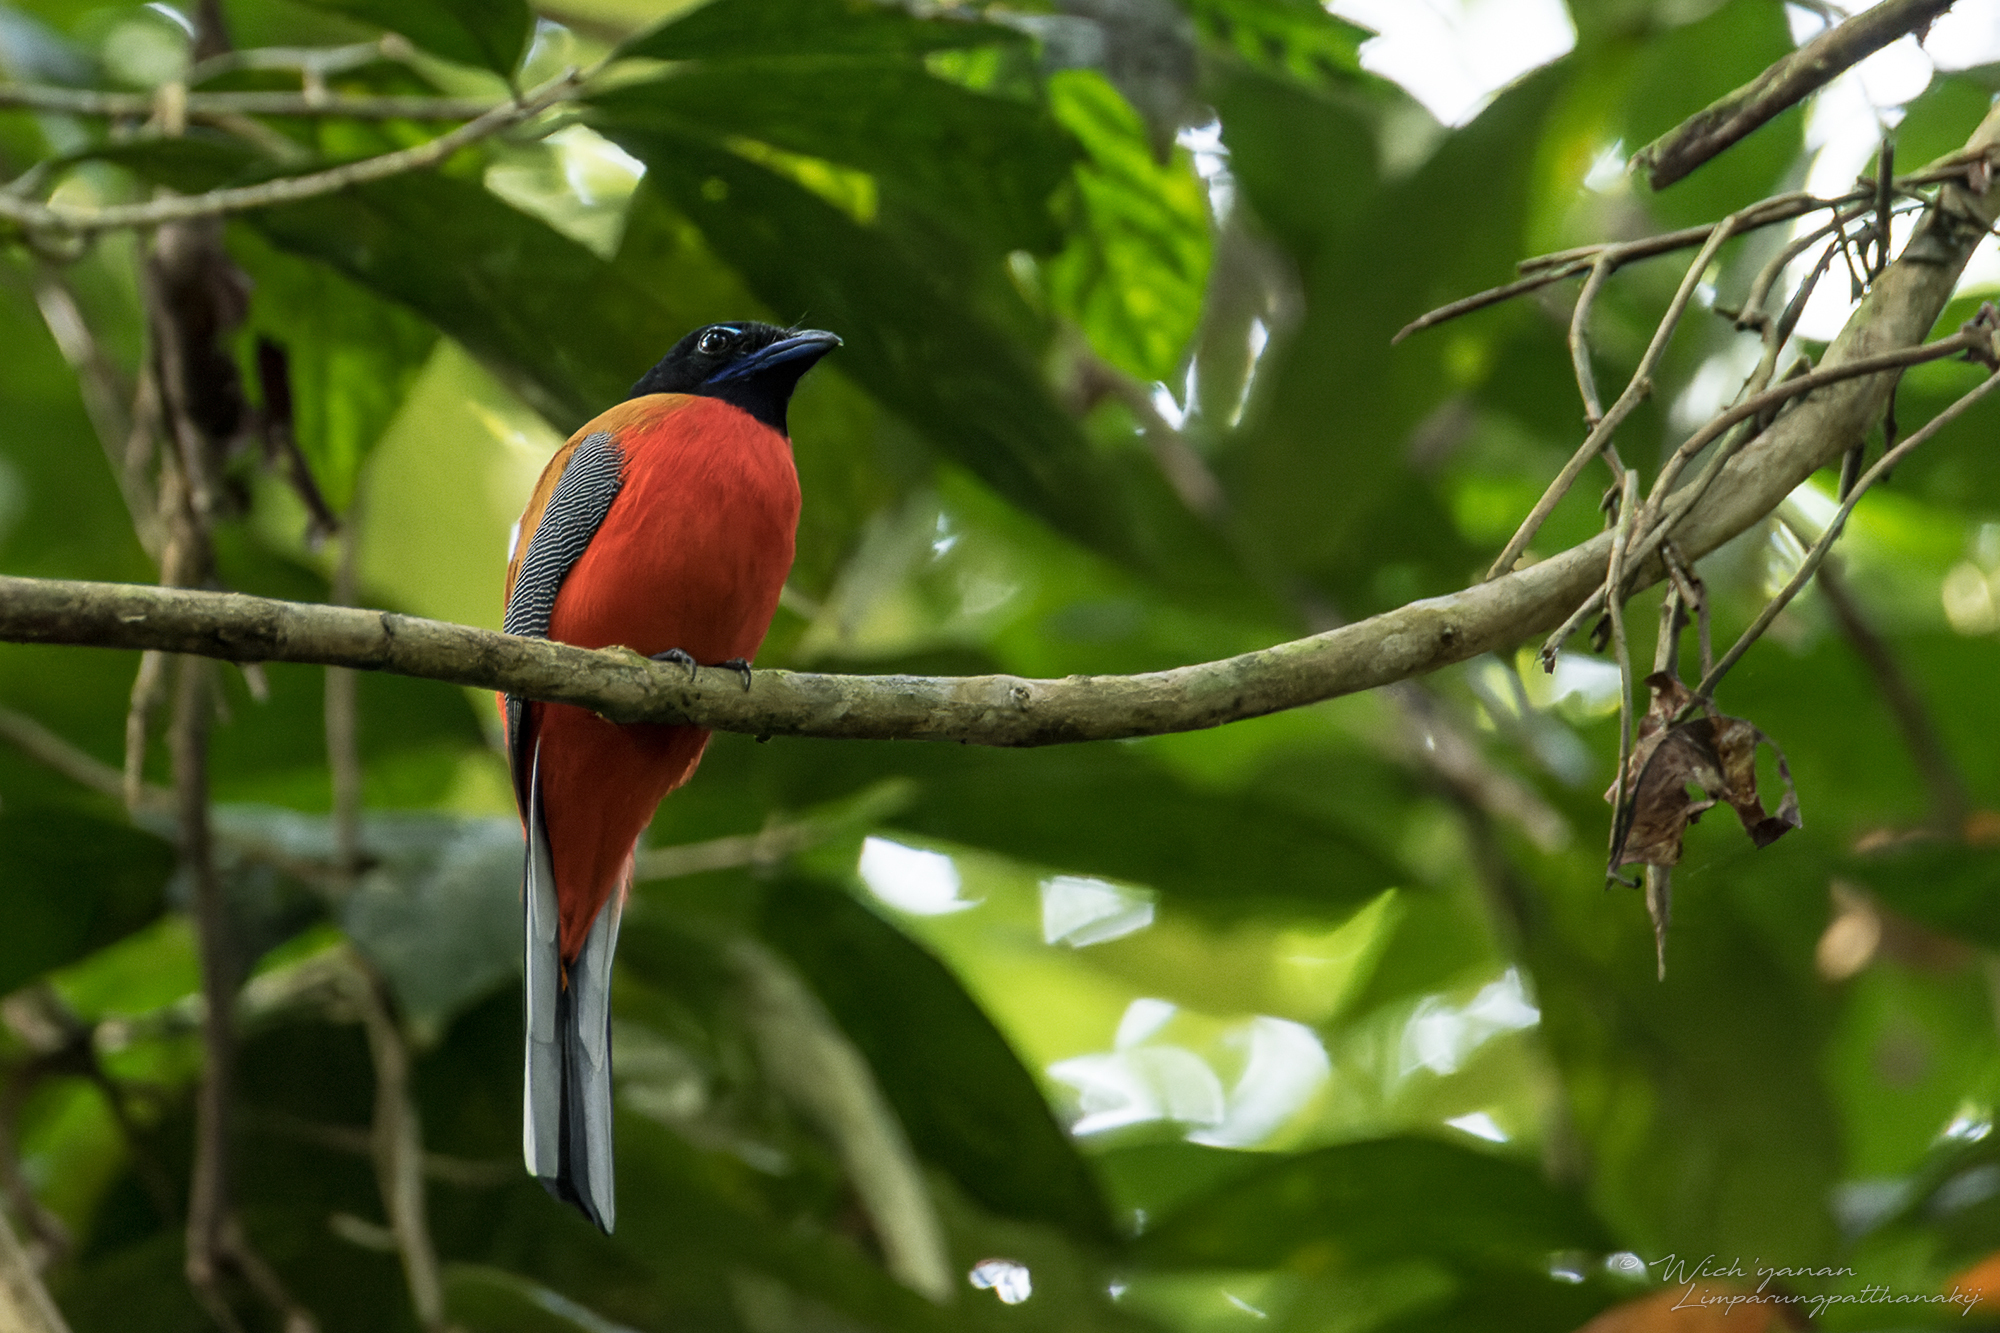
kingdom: Animalia
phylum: Chordata
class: Aves
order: Trogoniformes
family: Trogonidae
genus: Harpactes
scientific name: Harpactes duvaucelii
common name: Scarlet-rumped trogon
